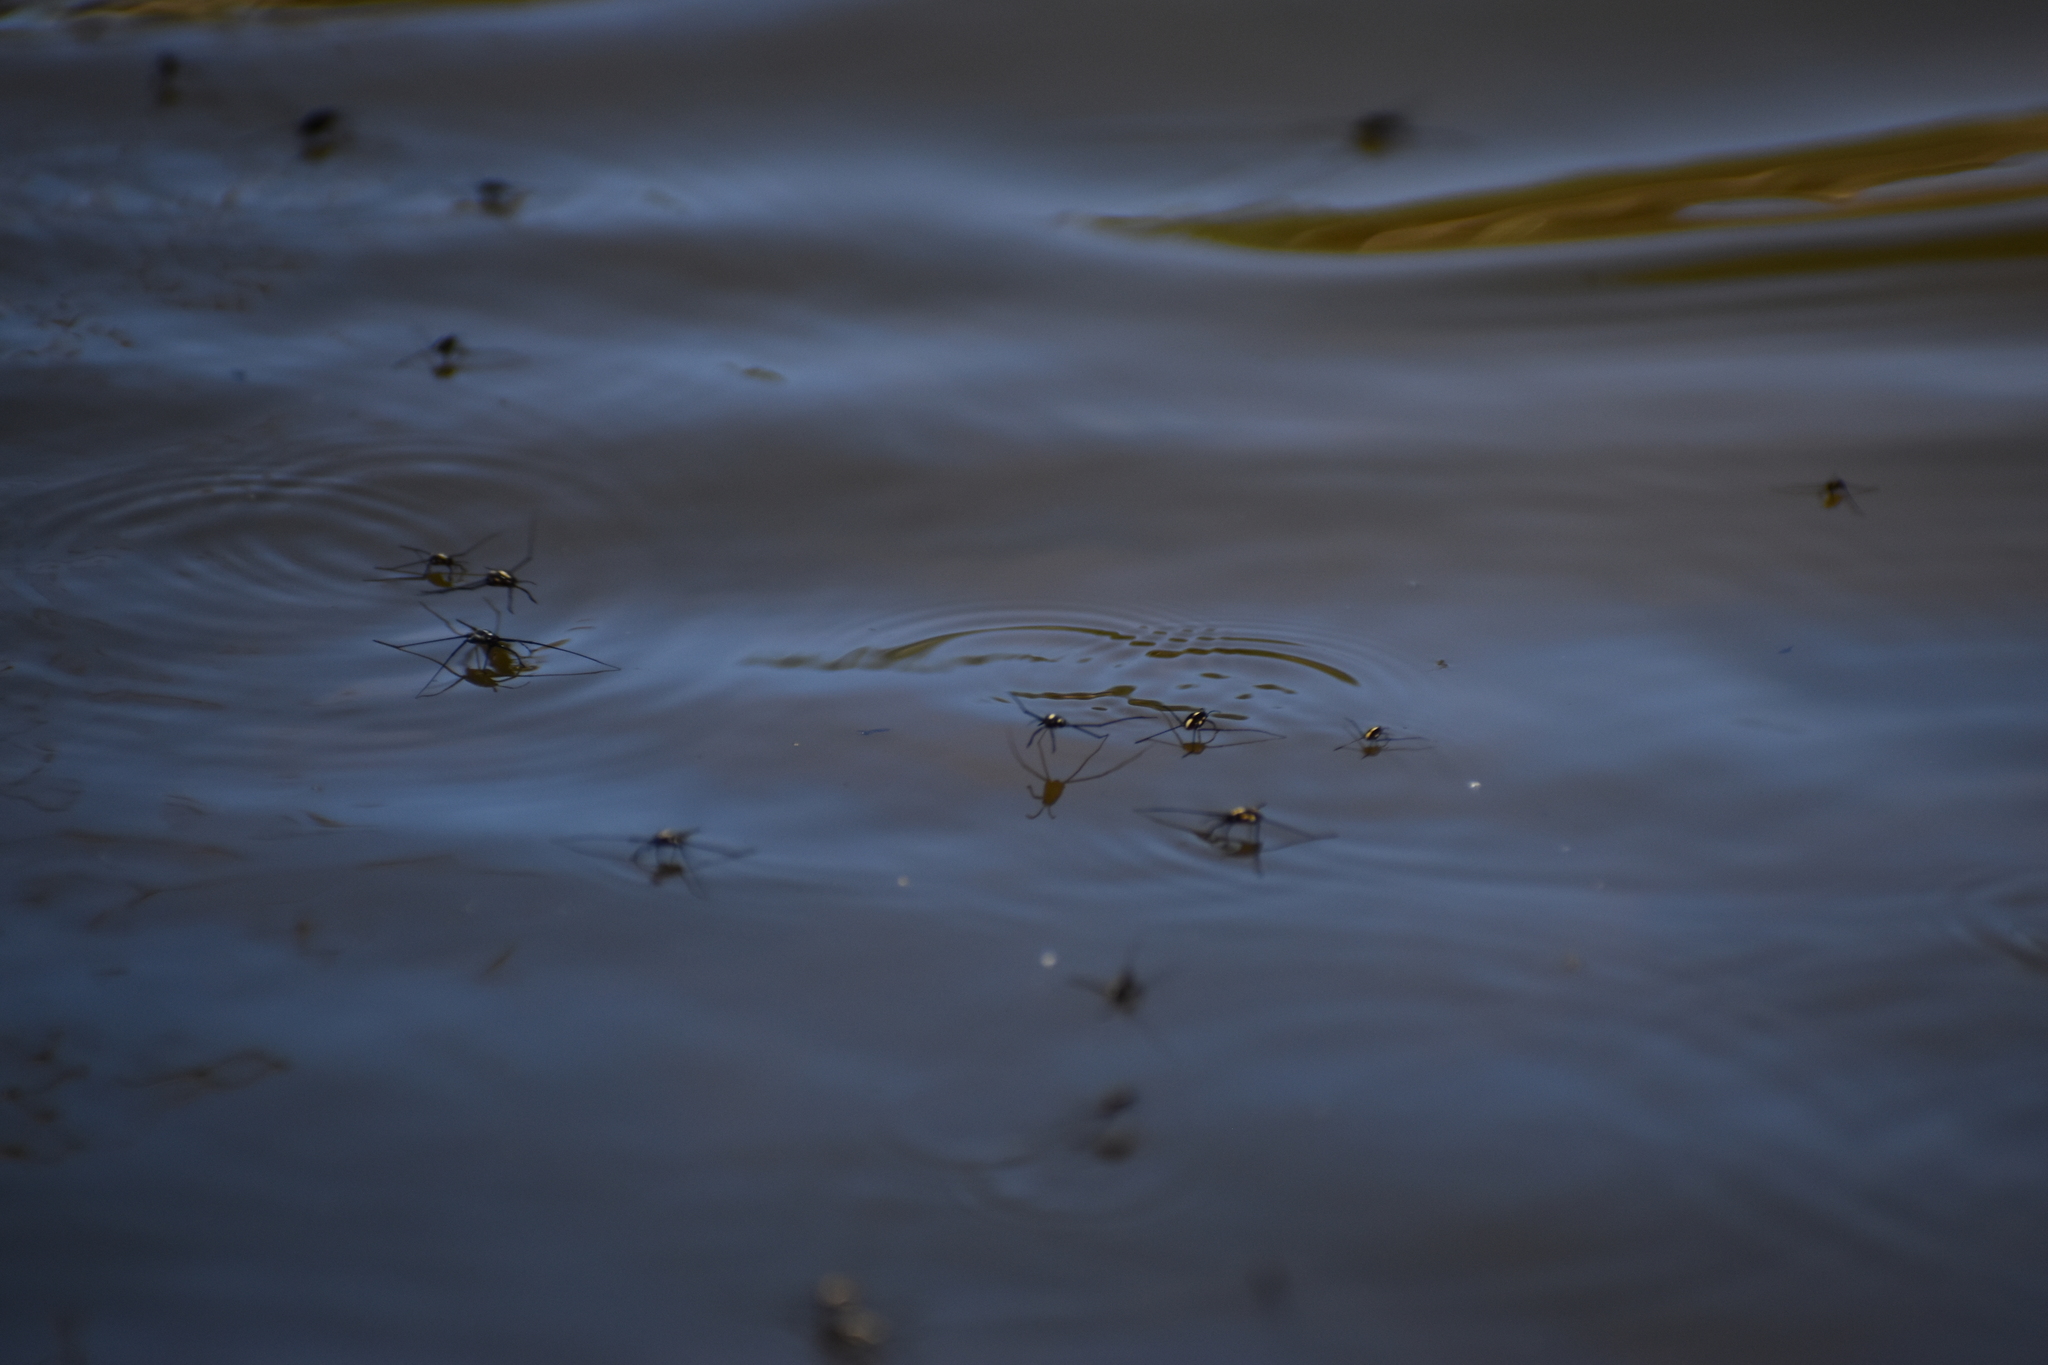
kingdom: Animalia
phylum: Arthropoda
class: Insecta
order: Hemiptera
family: Gerridae
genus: Metrobates
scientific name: Metrobates hesperius
